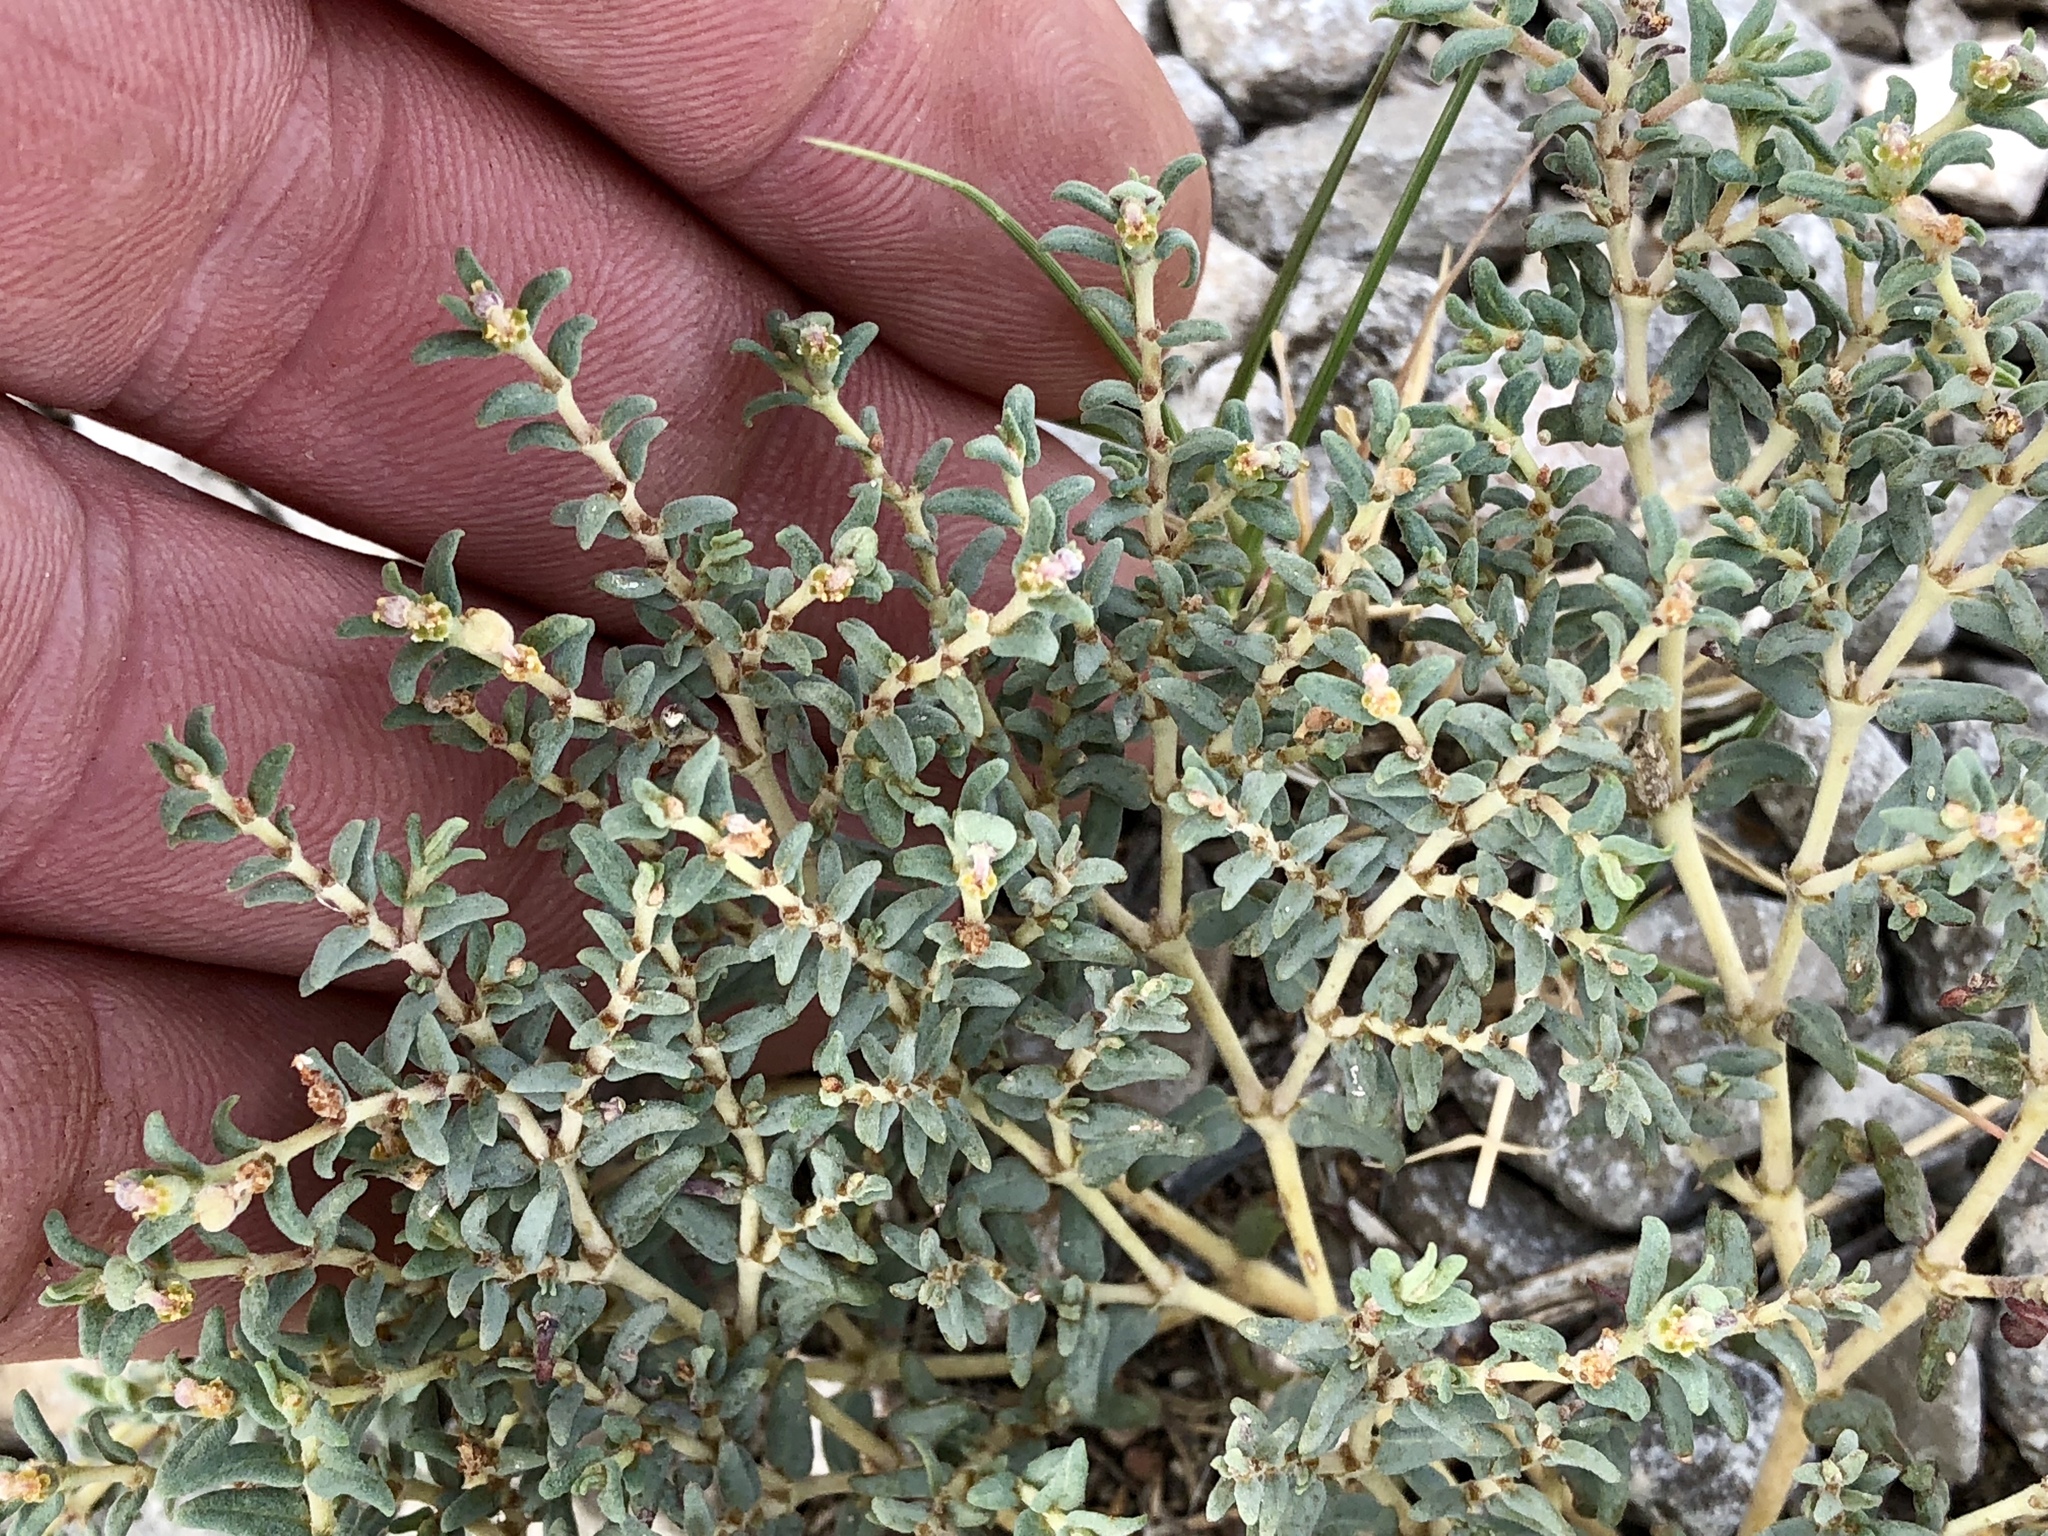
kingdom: Plantae
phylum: Tracheophyta
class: Magnoliopsida
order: Malpighiales
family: Euphorbiaceae
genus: Euphorbia
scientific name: Euphorbia lata
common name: Hoary euphorbia
